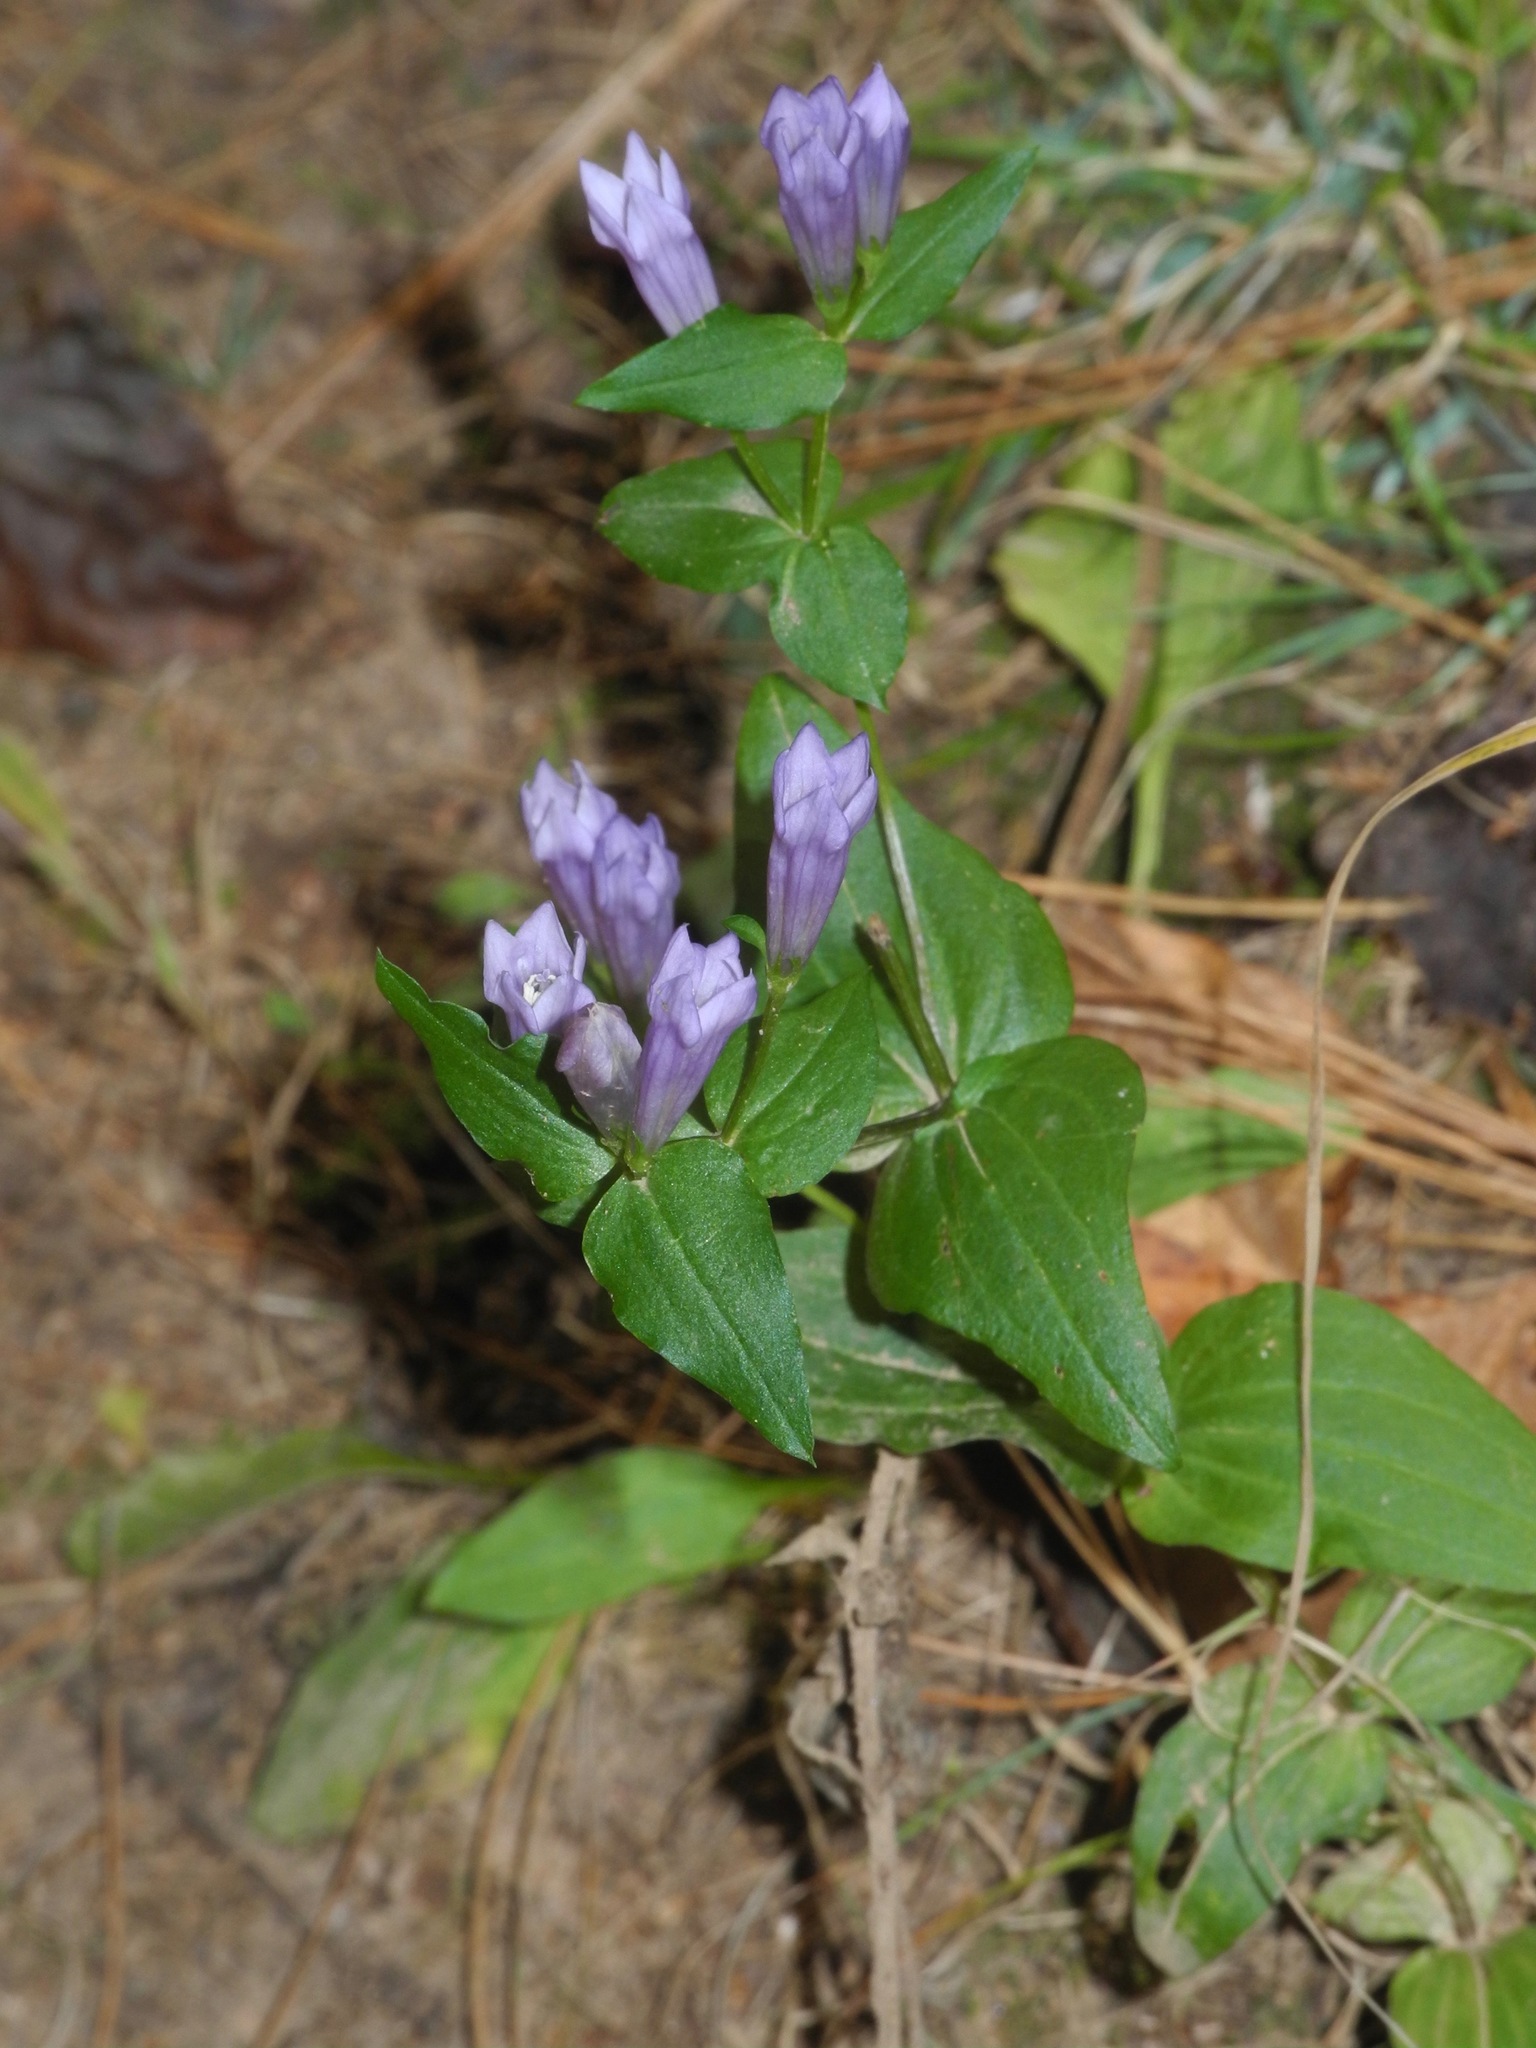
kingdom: Plantae
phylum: Tracheophyta
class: Magnoliopsida
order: Gentianales
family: Gentianaceae
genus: Gentianella
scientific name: Gentianella quinquefolia
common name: Agueweed
